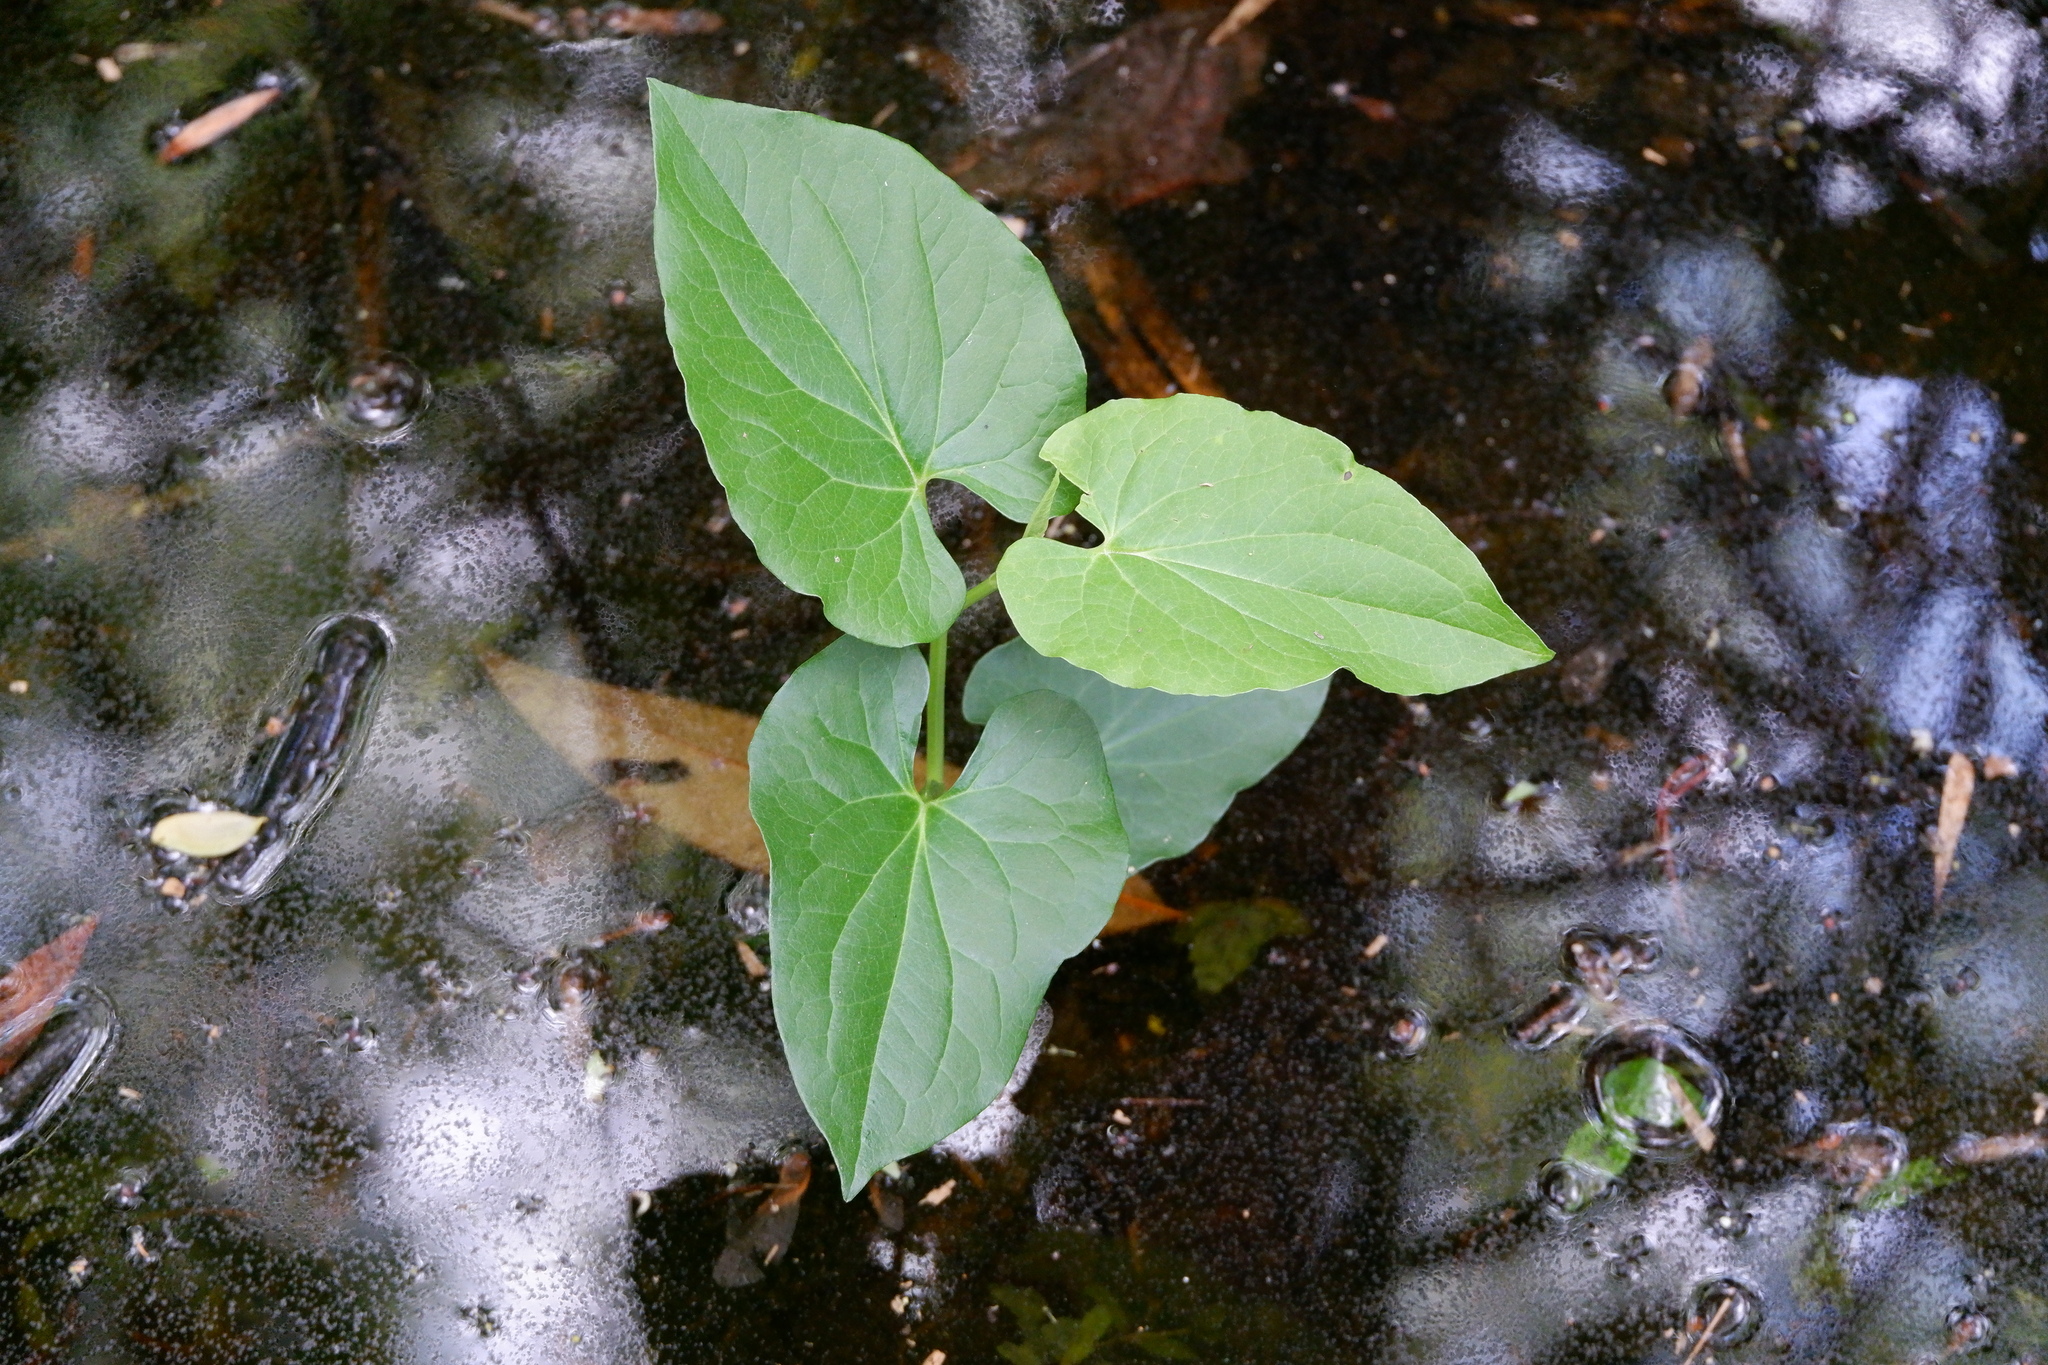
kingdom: Plantae
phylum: Tracheophyta
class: Magnoliopsida
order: Piperales
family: Saururaceae
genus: Saururus
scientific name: Saururus cernuus
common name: Lizard's-tail
